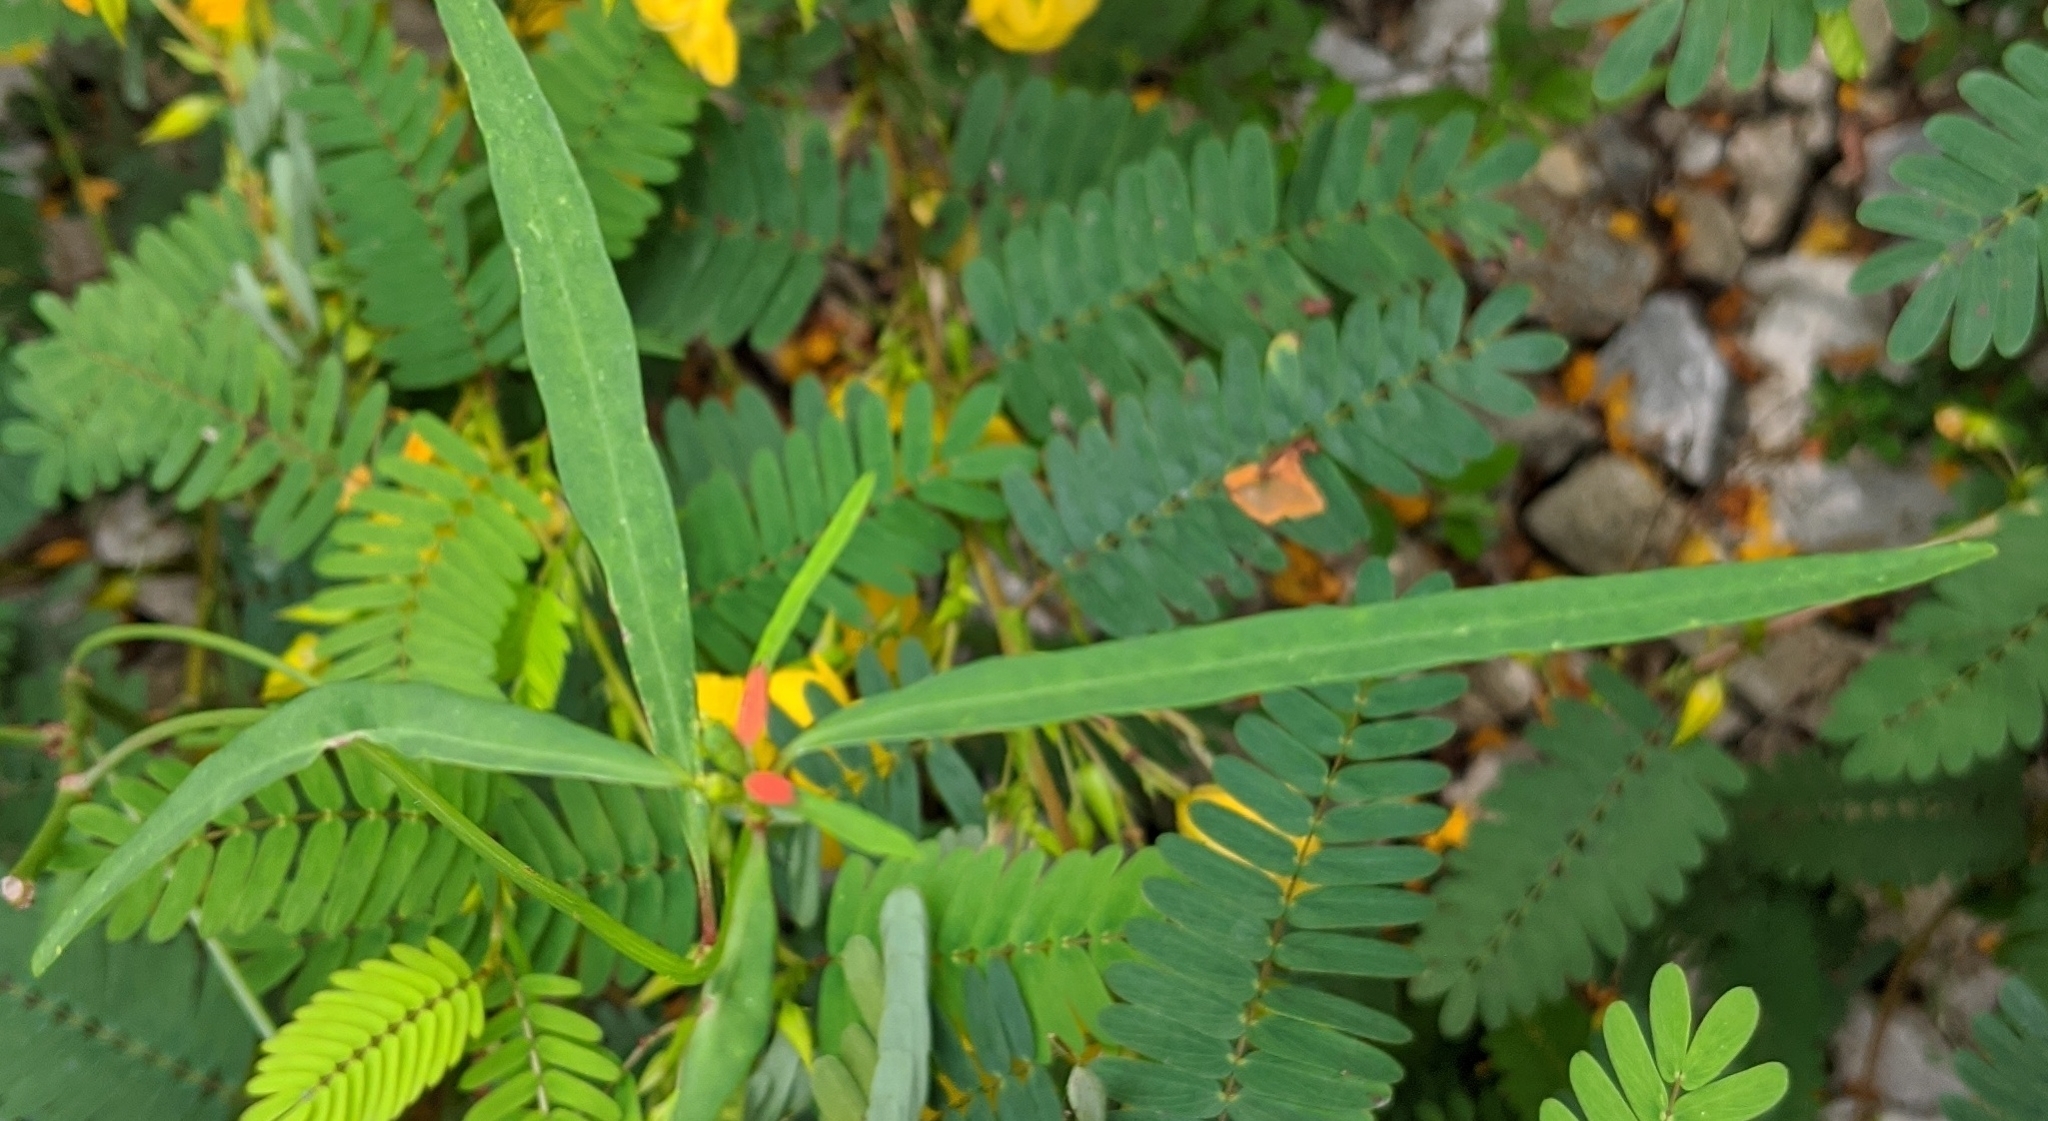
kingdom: Plantae
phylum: Tracheophyta
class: Magnoliopsida
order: Malpighiales
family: Euphorbiaceae
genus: Euphorbia
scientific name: Euphorbia heterophylla
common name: Mexican fireplant
